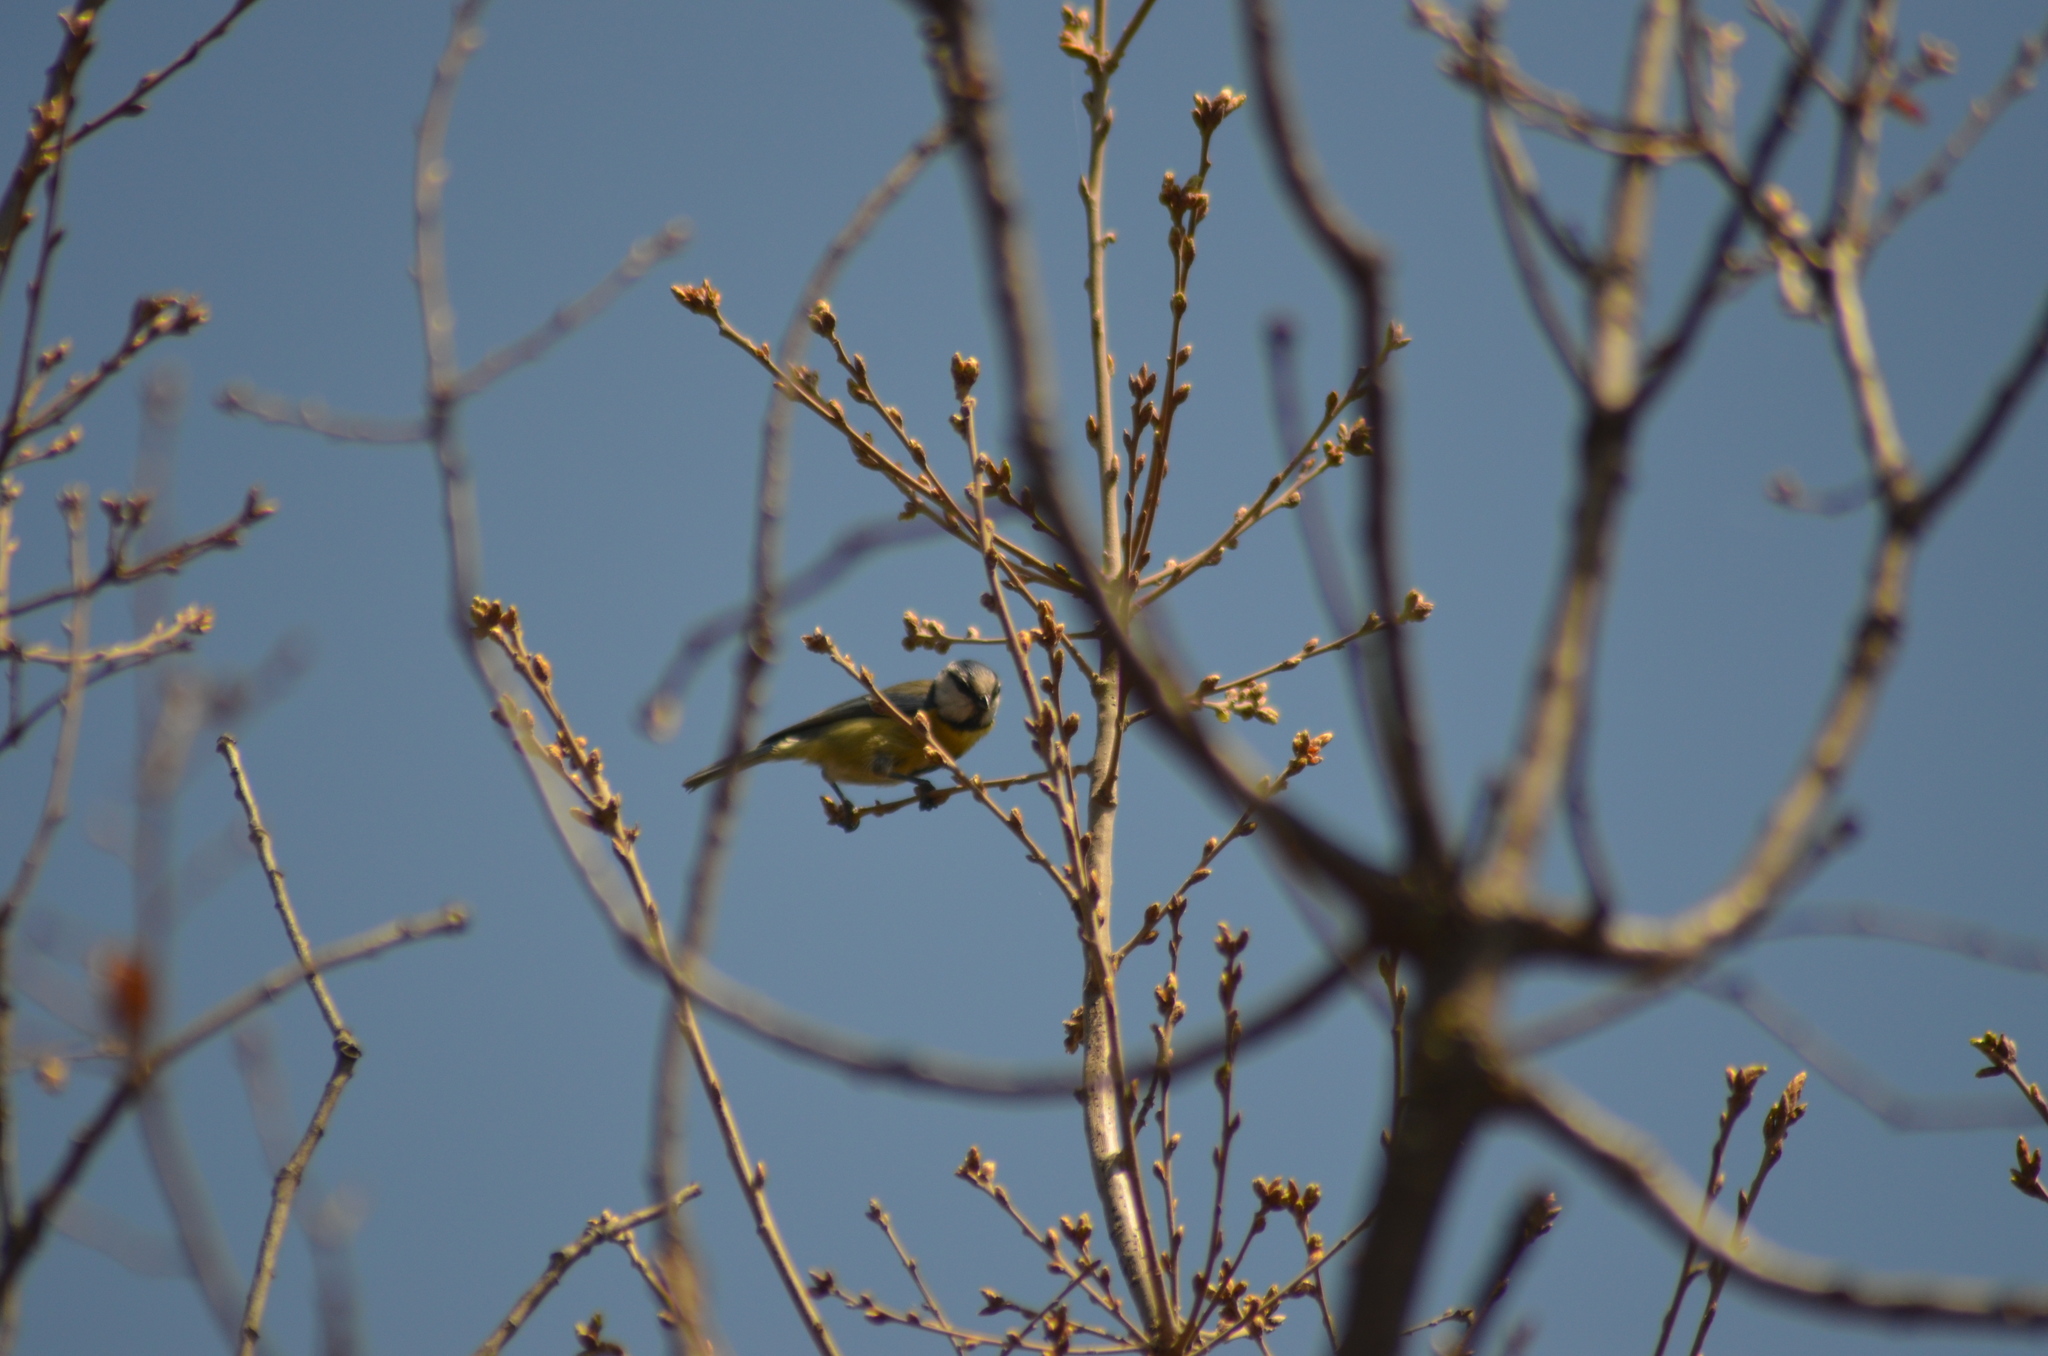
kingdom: Animalia
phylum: Chordata
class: Aves
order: Passeriformes
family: Paridae
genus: Cyanistes
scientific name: Cyanistes caeruleus
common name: Eurasian blue tit
